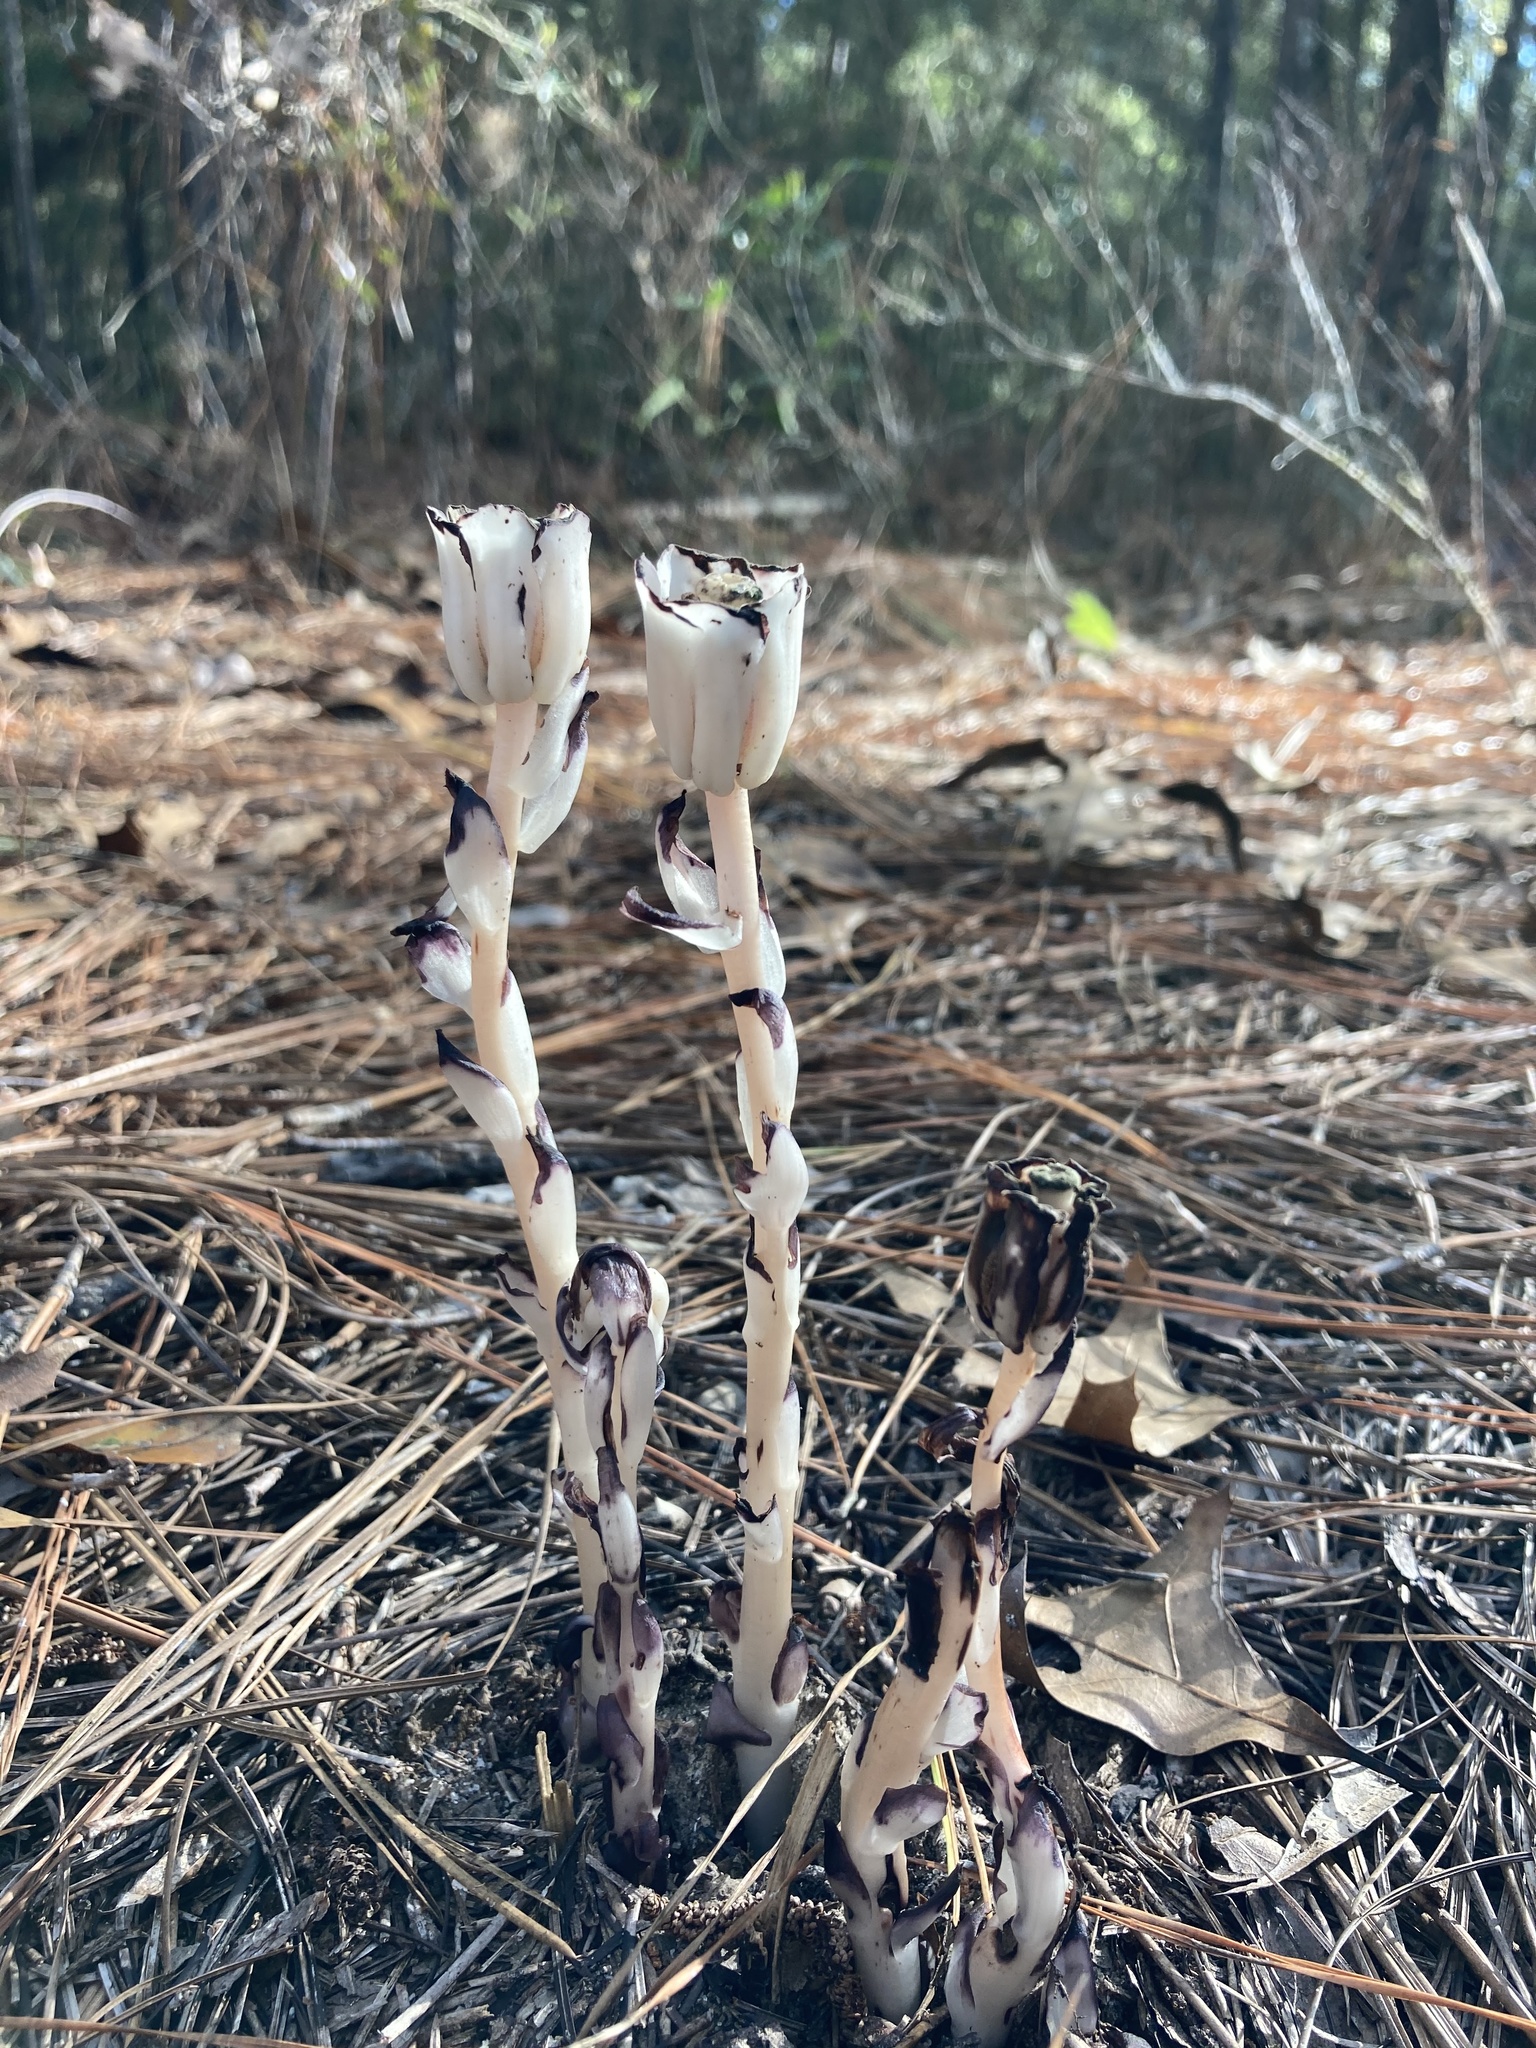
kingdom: Plantae
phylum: Tracheophyta
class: Magnoliopsida
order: Ericales
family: Ericaceae
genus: Monotropa
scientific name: Monotropa uniflora
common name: Convulsion root
